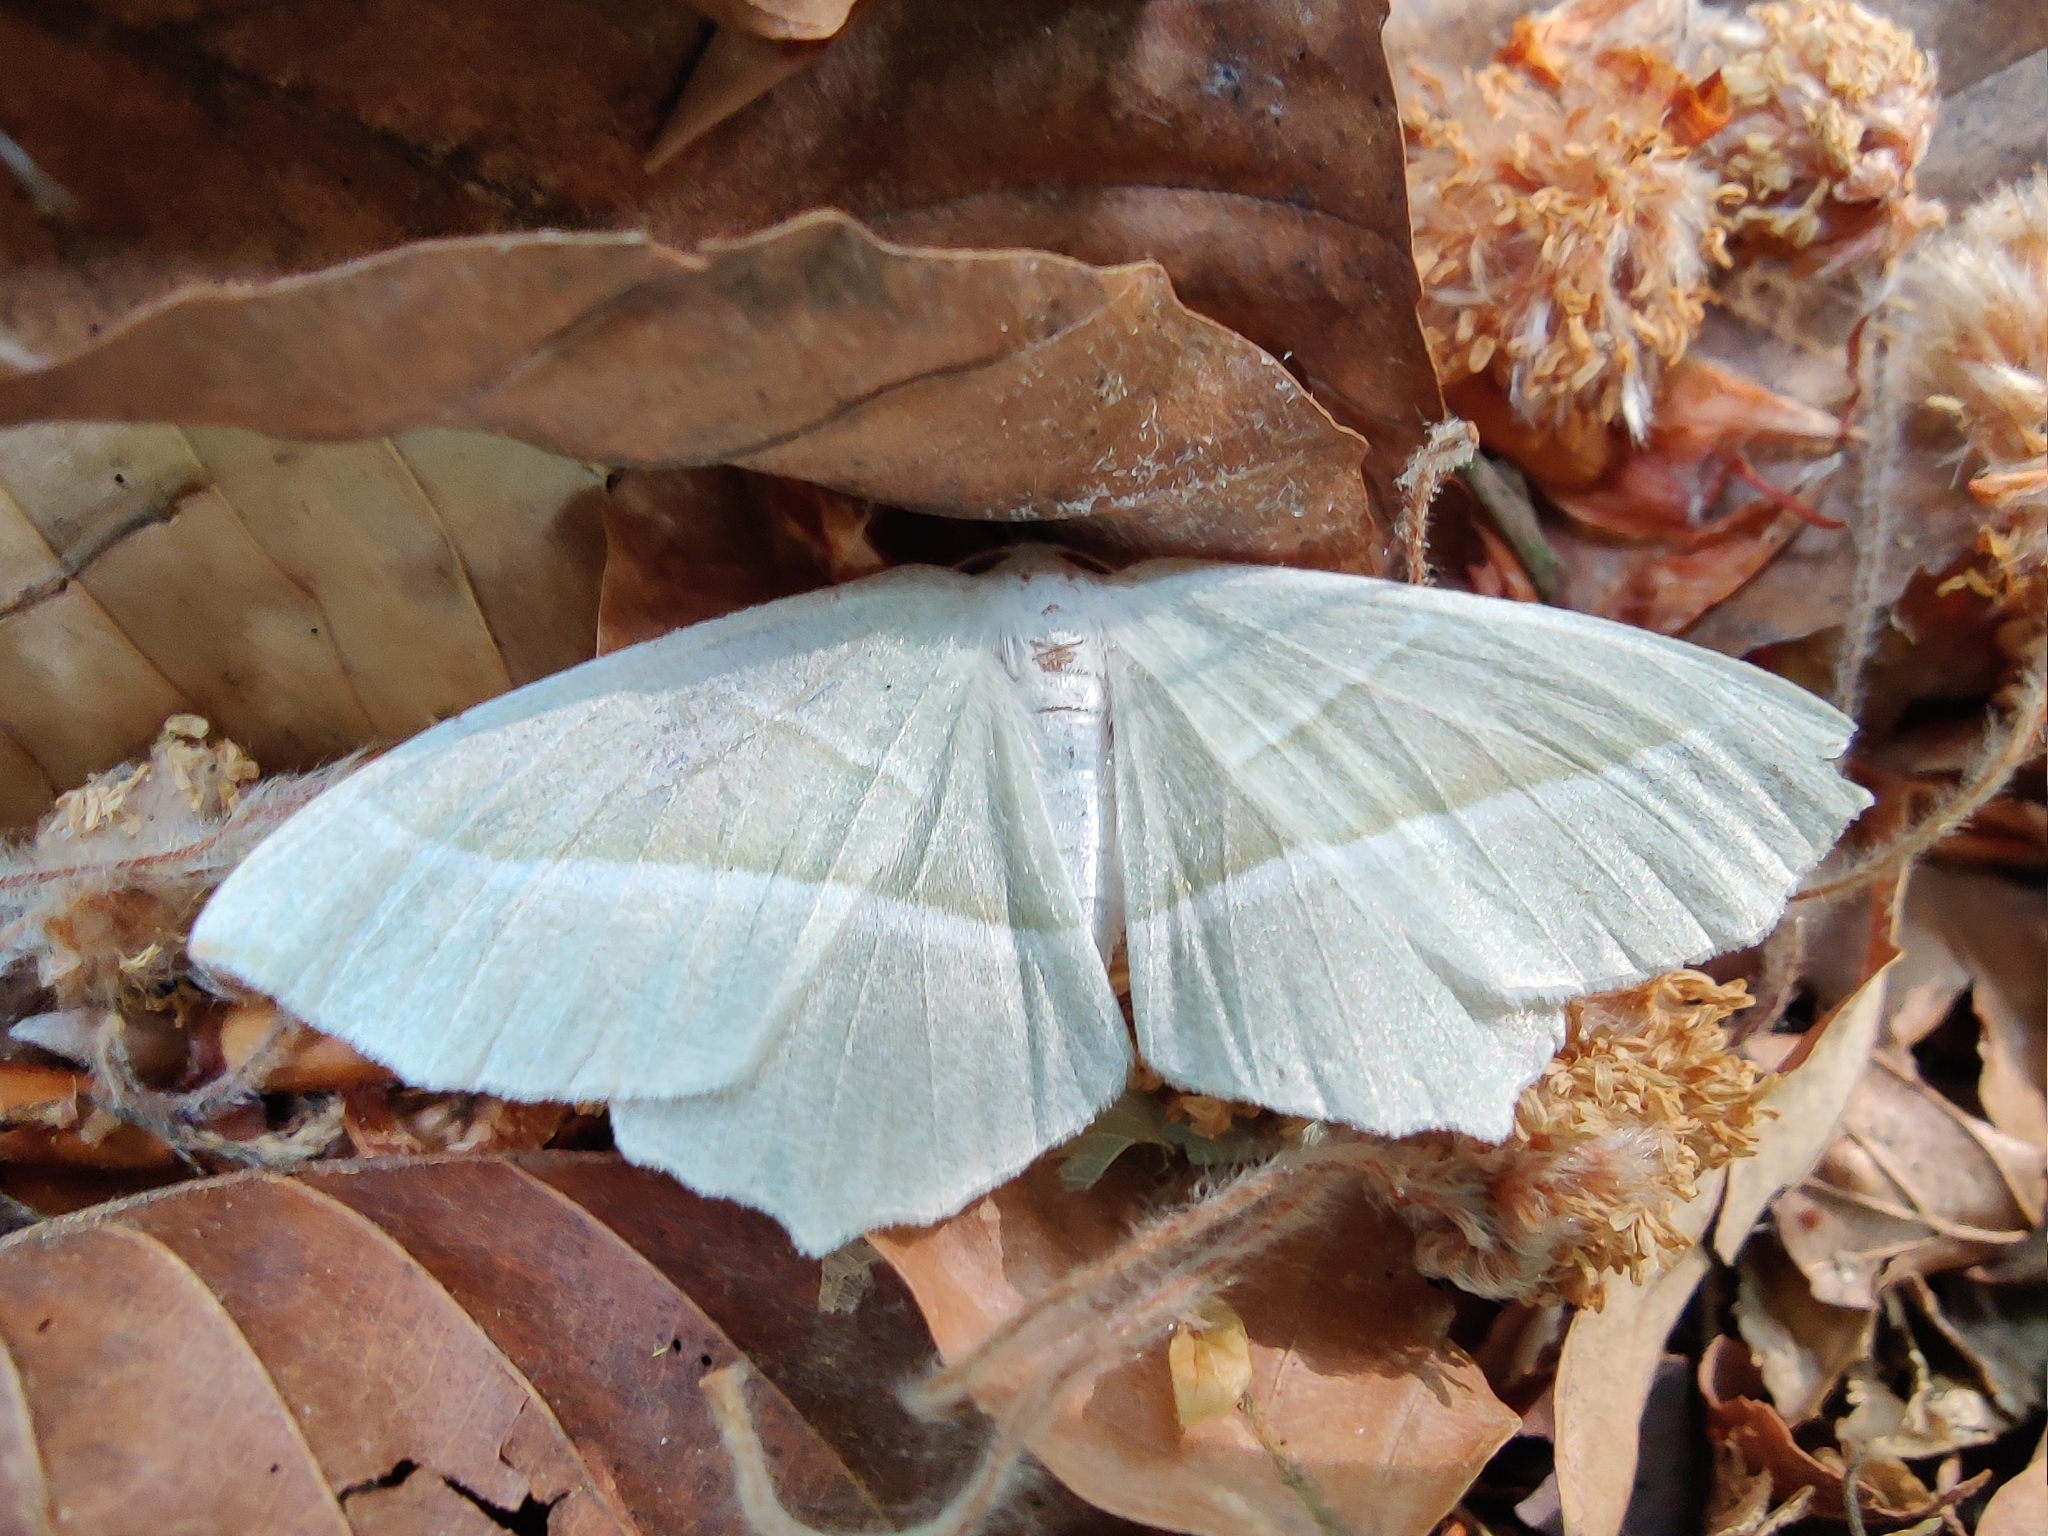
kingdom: Animalia
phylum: Arthropoda
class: Insecta
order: Lepidoptera
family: Geometridae
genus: Campaea
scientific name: Campaea margaritaria
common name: Light emerald
